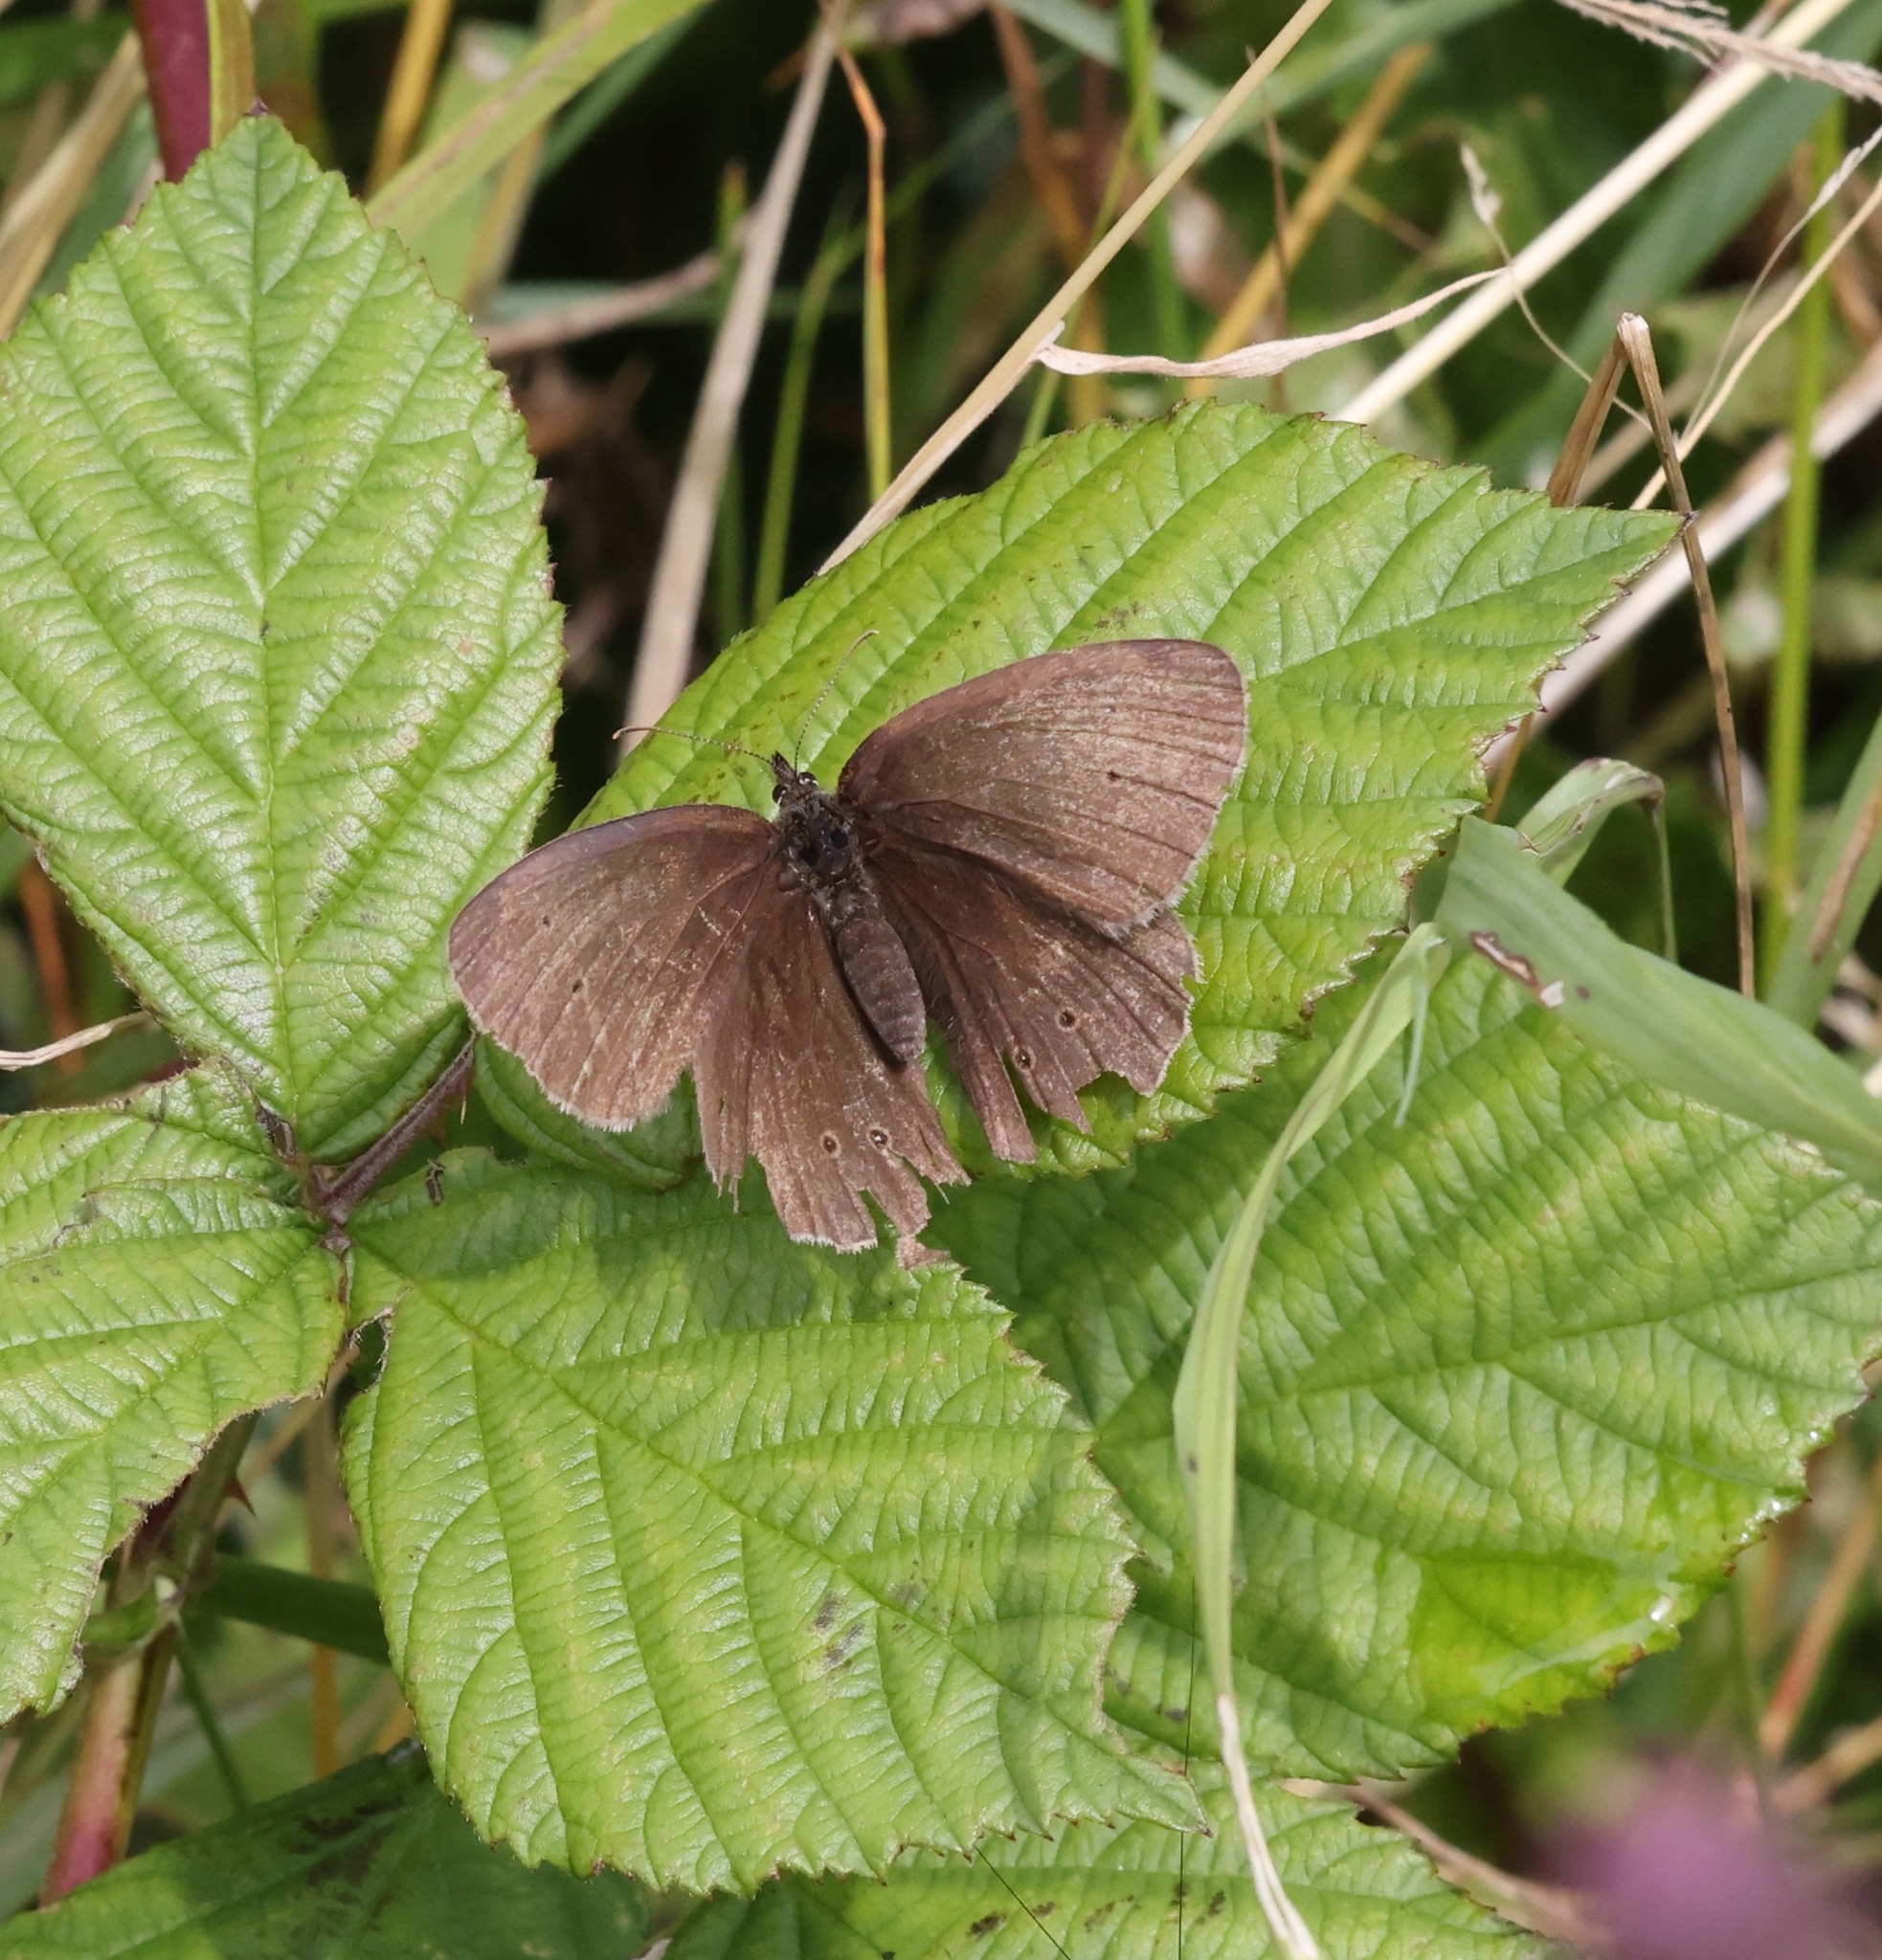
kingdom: Animalia
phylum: Arthropoda
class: Insecta
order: Lepidoptera
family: Nymphalidae
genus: Aphantopus
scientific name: Aphantopus hyperantus
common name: Ringlet
